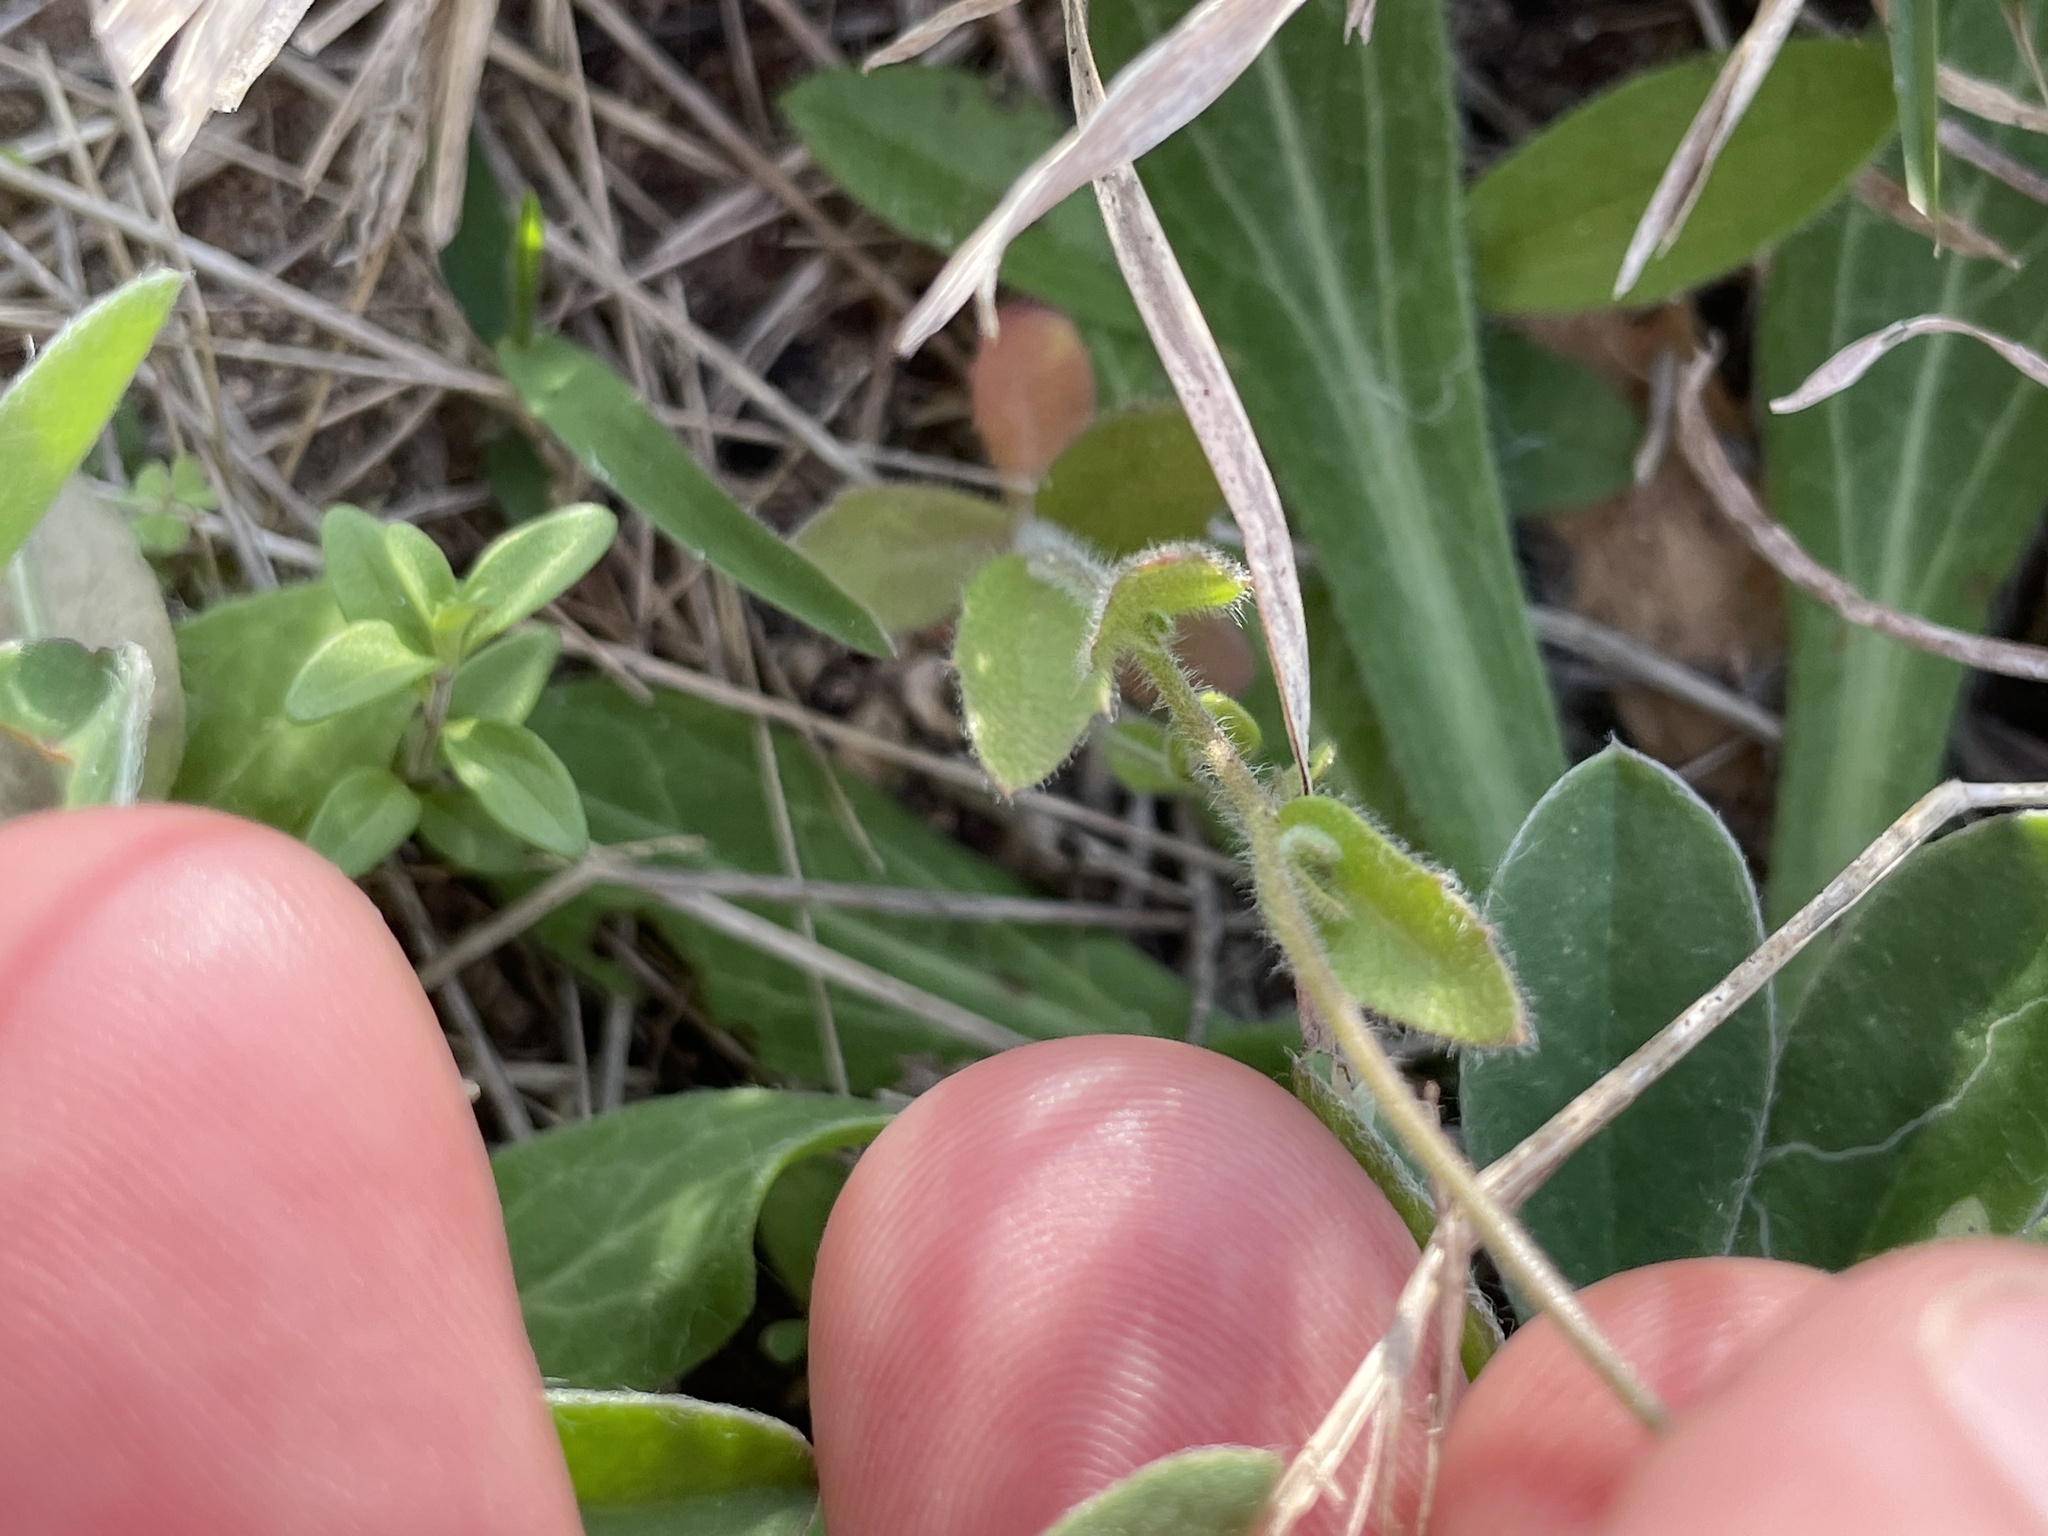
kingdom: Plantae
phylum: Tracheophyta
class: Magnoliopsida
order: Brassicales
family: Brassicaceae
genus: Tomostima
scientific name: Tomostima platycarpa
